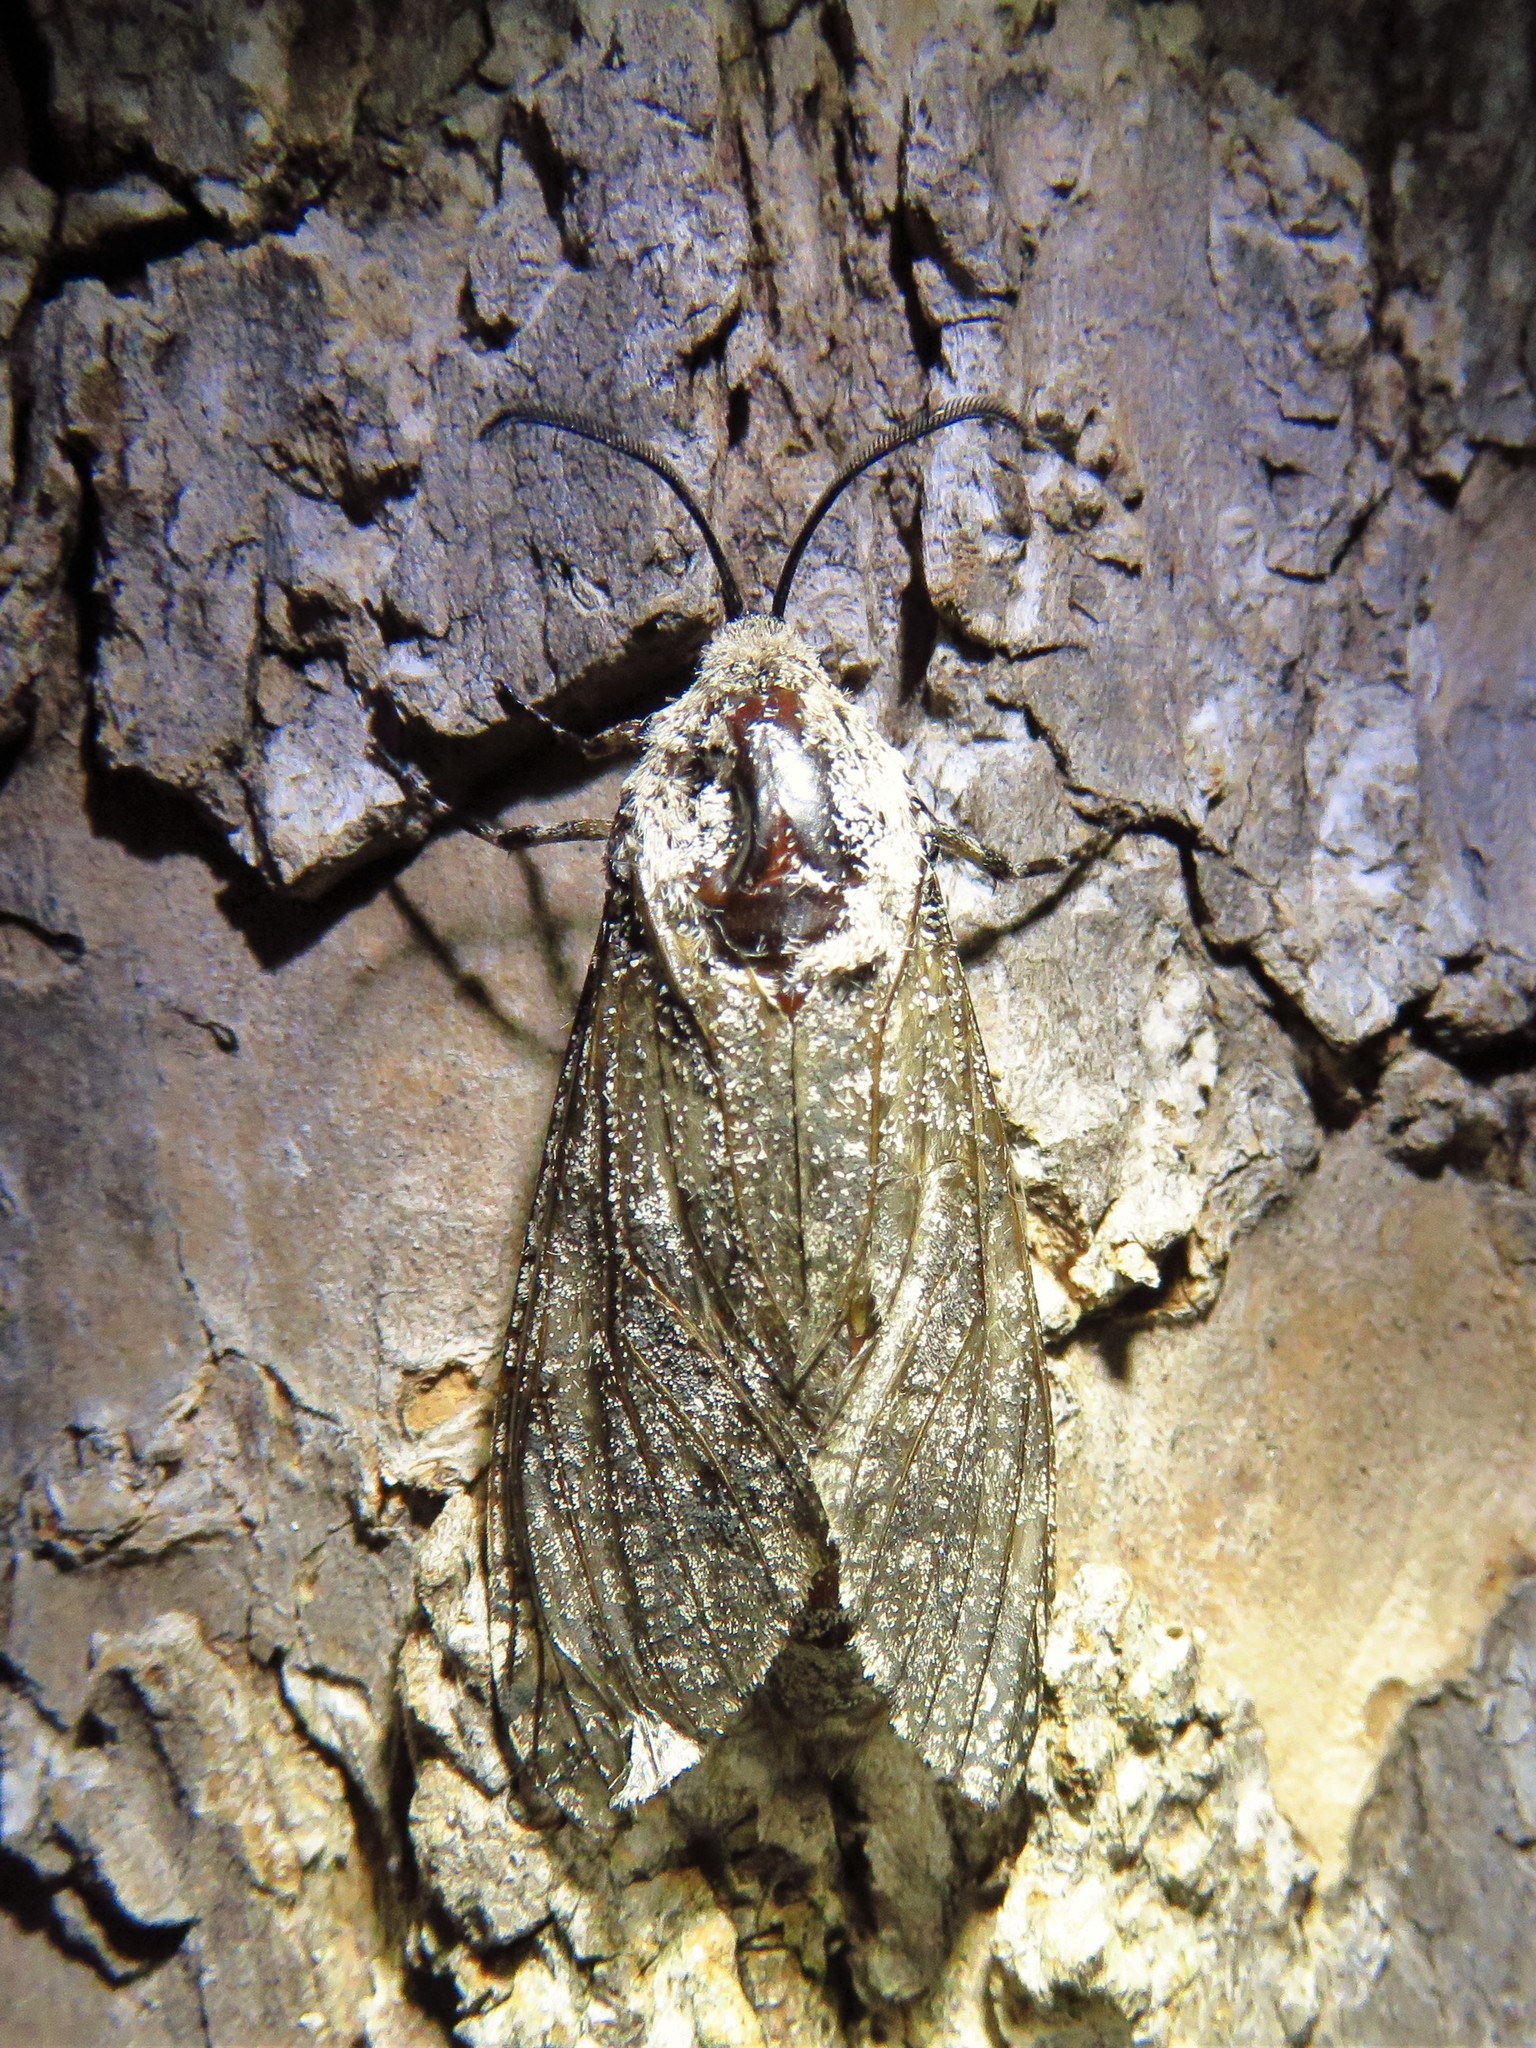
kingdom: Animalia
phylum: Arthropoda
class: Insecta
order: Lepidoptera
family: Cossidae
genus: Prionoxystus
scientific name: Prionoxystus robiniae
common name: Carpenterworm
